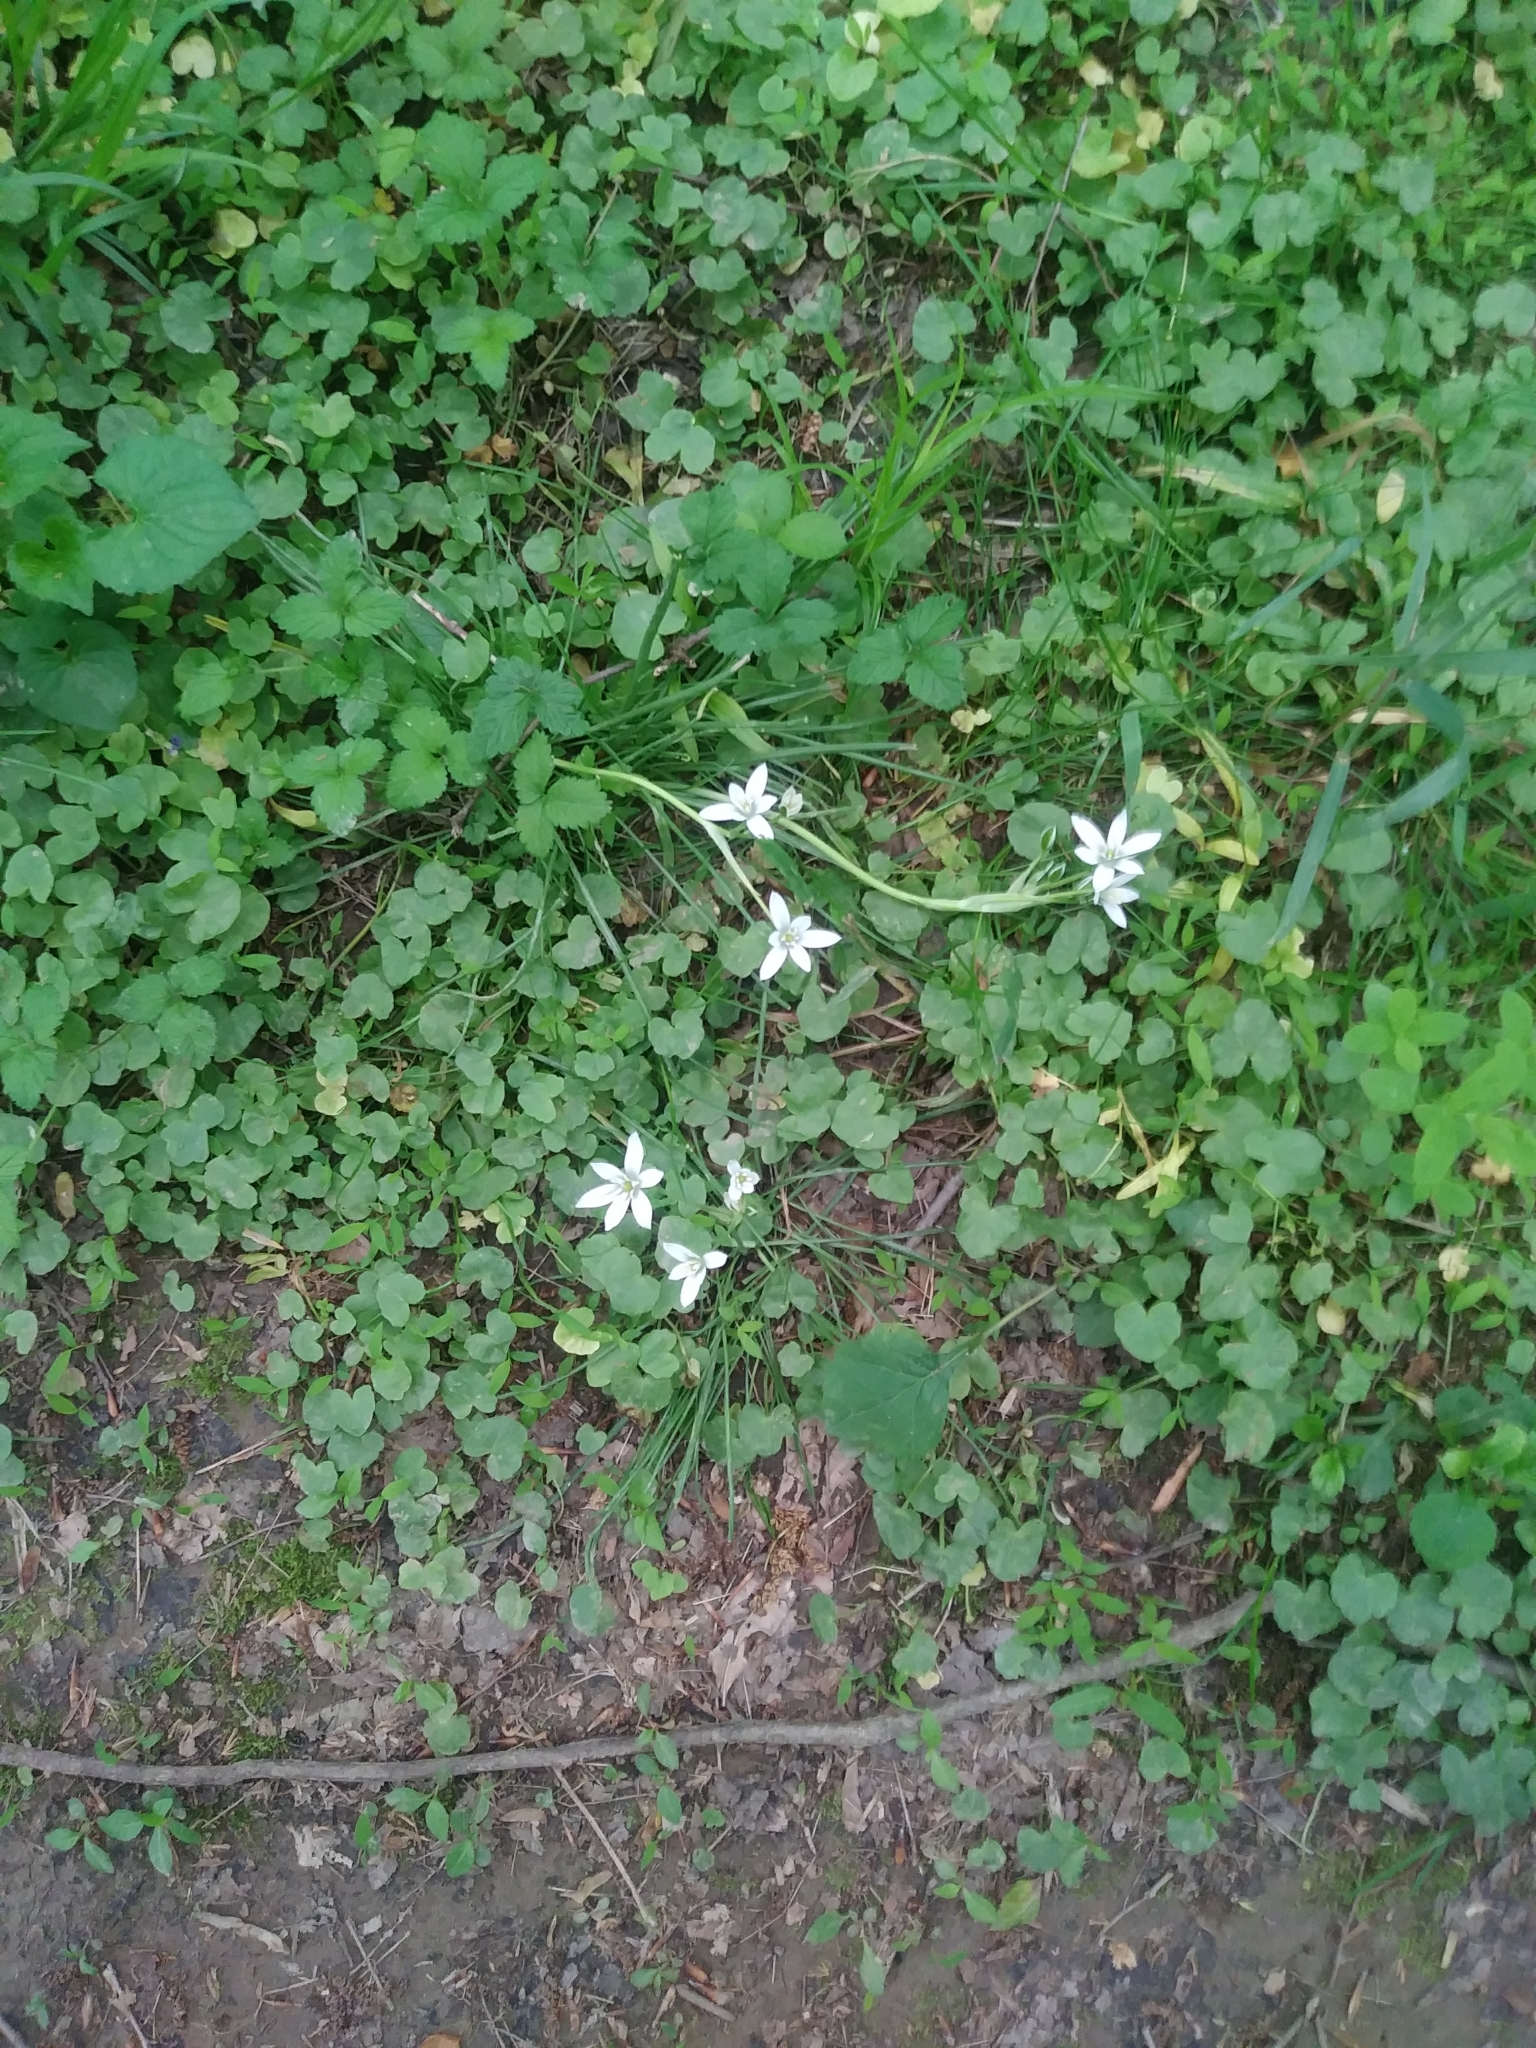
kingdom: Plantae
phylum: Tracheophyta
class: Liliopsida
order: Asparagales
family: Asparagaceae
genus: Ornithogalum
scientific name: Ornithogalum umbellatum
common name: Garden star-of-bethlehem
